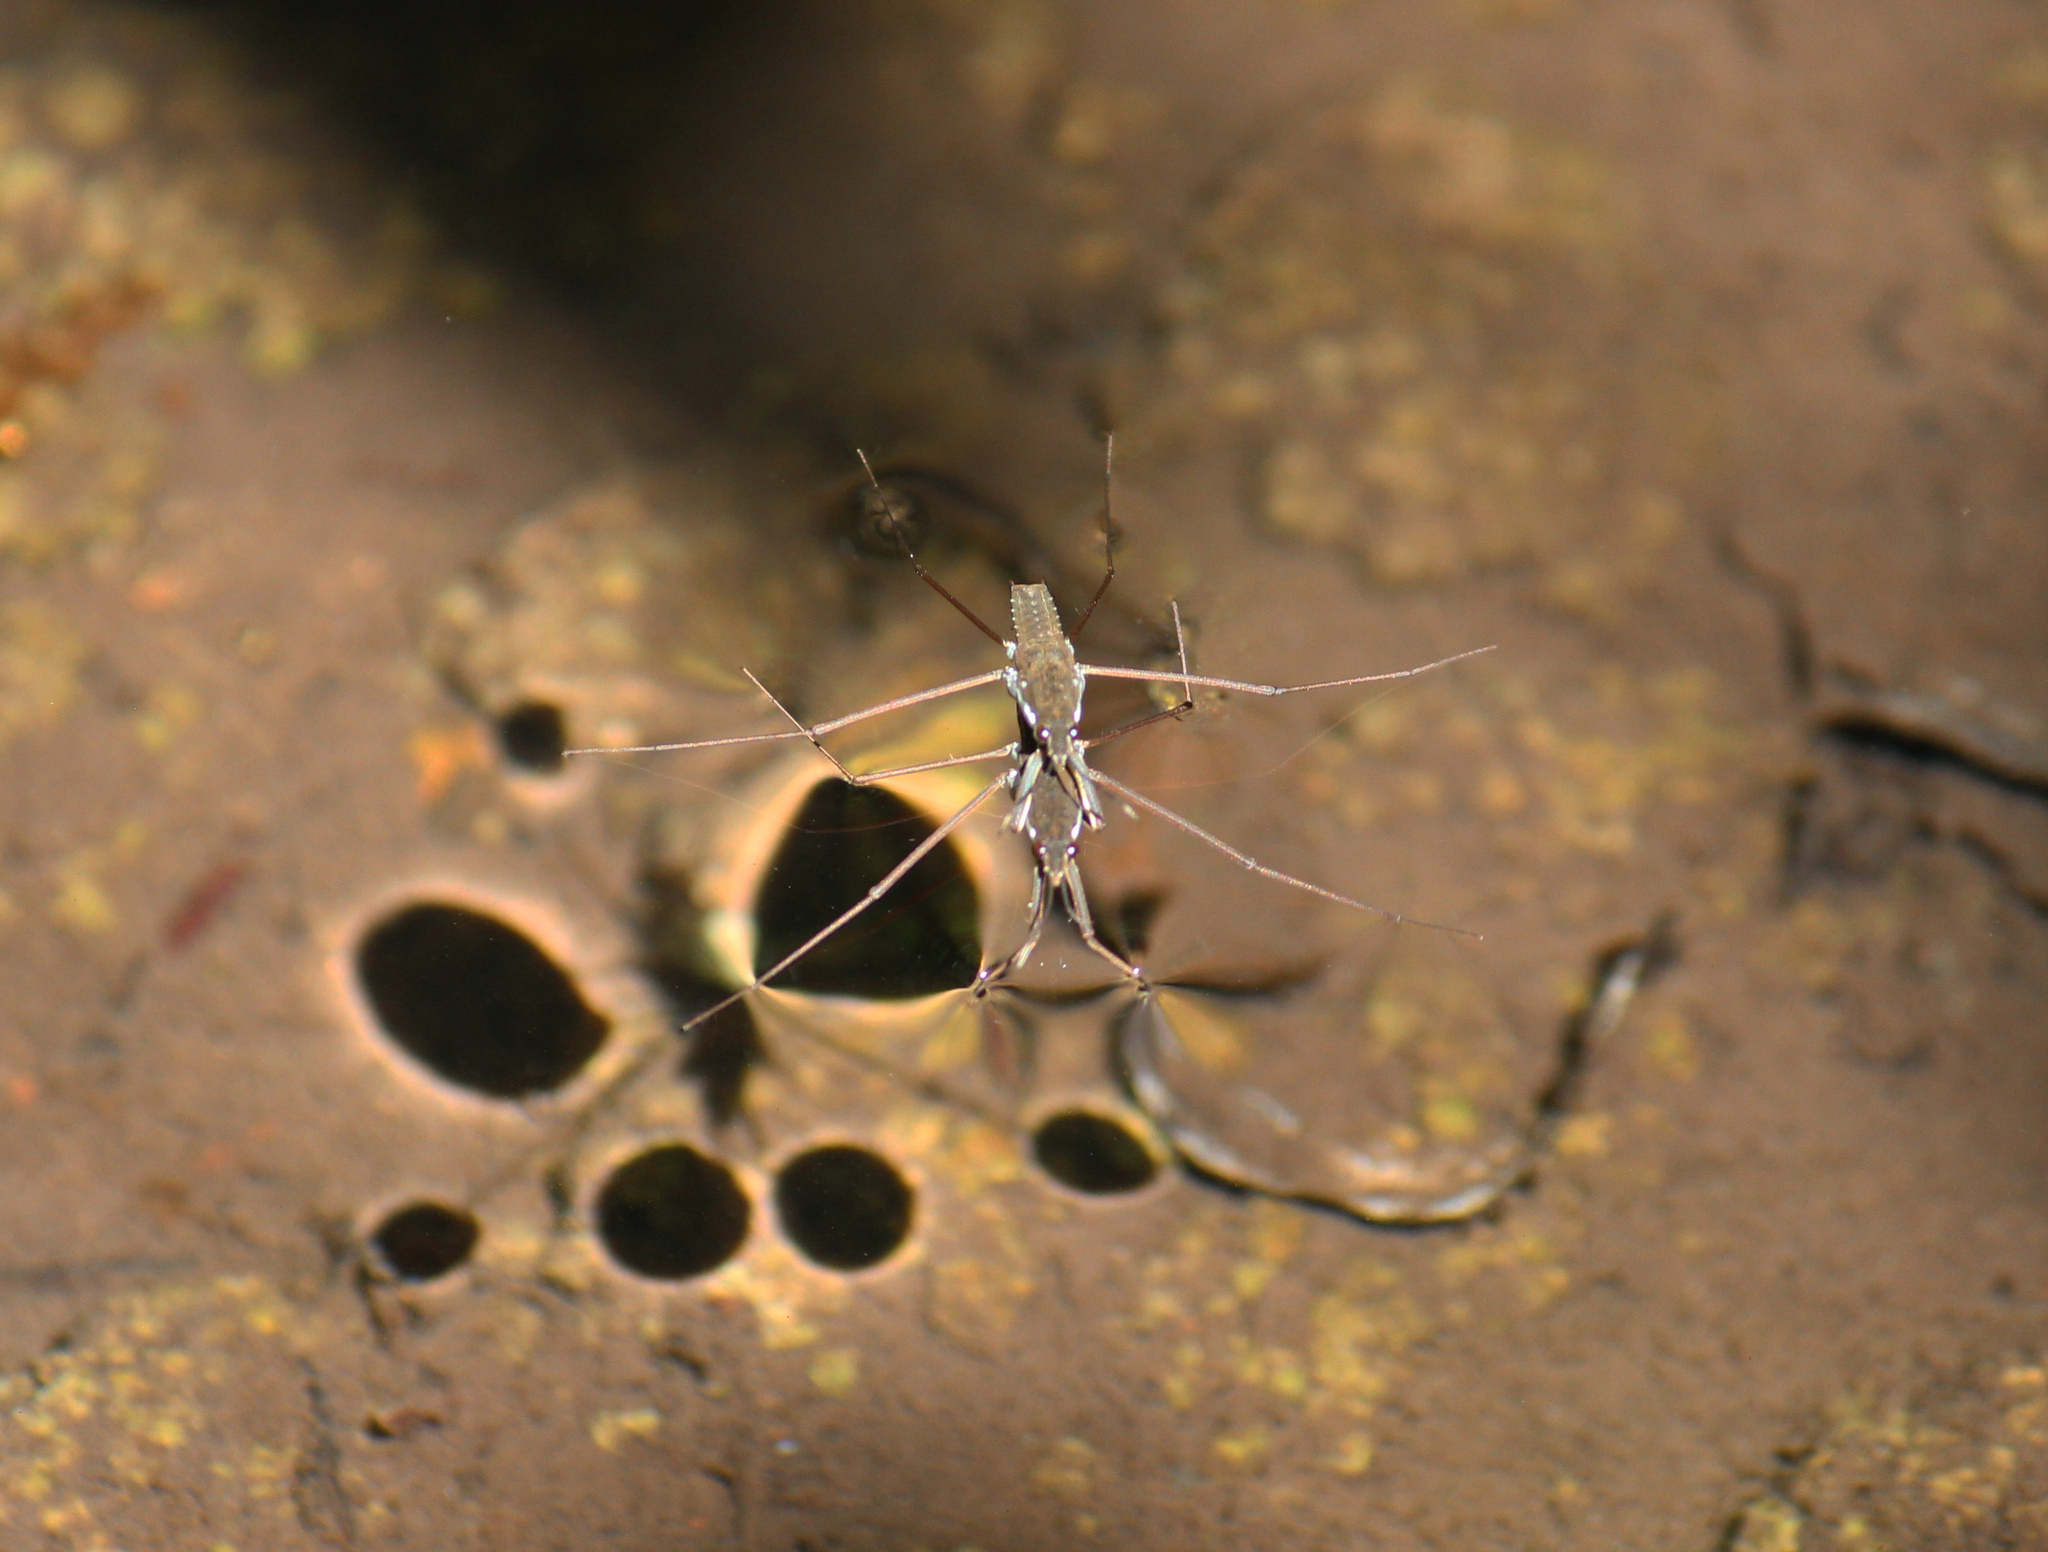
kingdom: Animalia
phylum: Arthropoda
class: Insecta
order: Hemiptera
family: Gerridae
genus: Aquarius
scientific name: Aquarius remigis
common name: Common water strider
